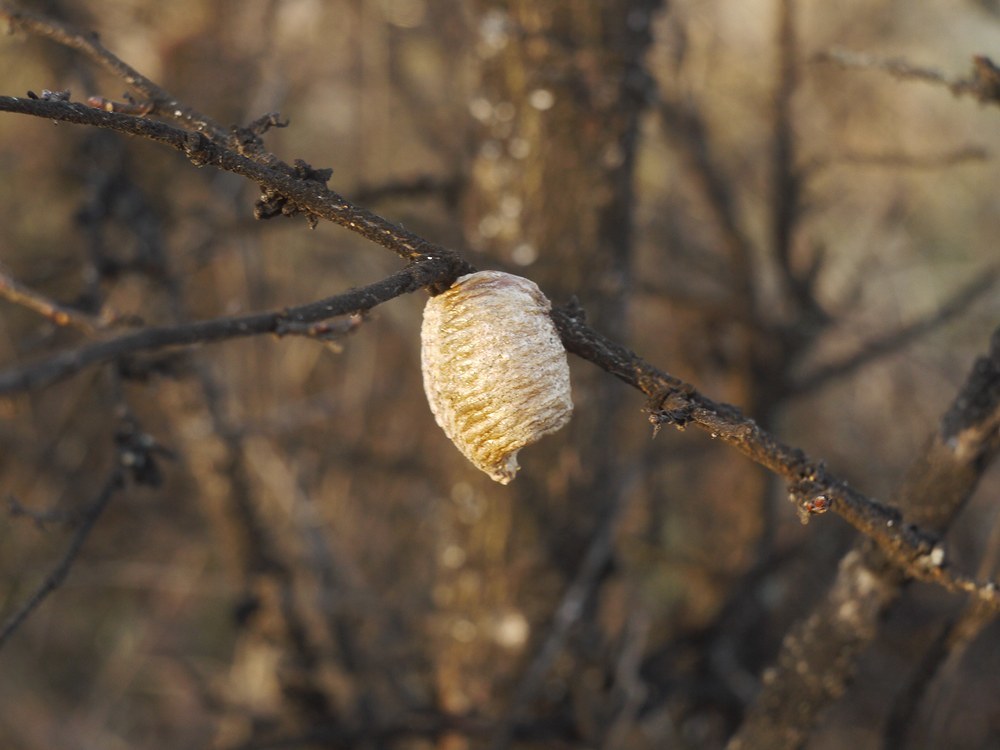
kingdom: Animalia
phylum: Arthropoda
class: Insecta
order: Mantodea
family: Mantidae
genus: Hierodula
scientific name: Hierodula transcaucasica
